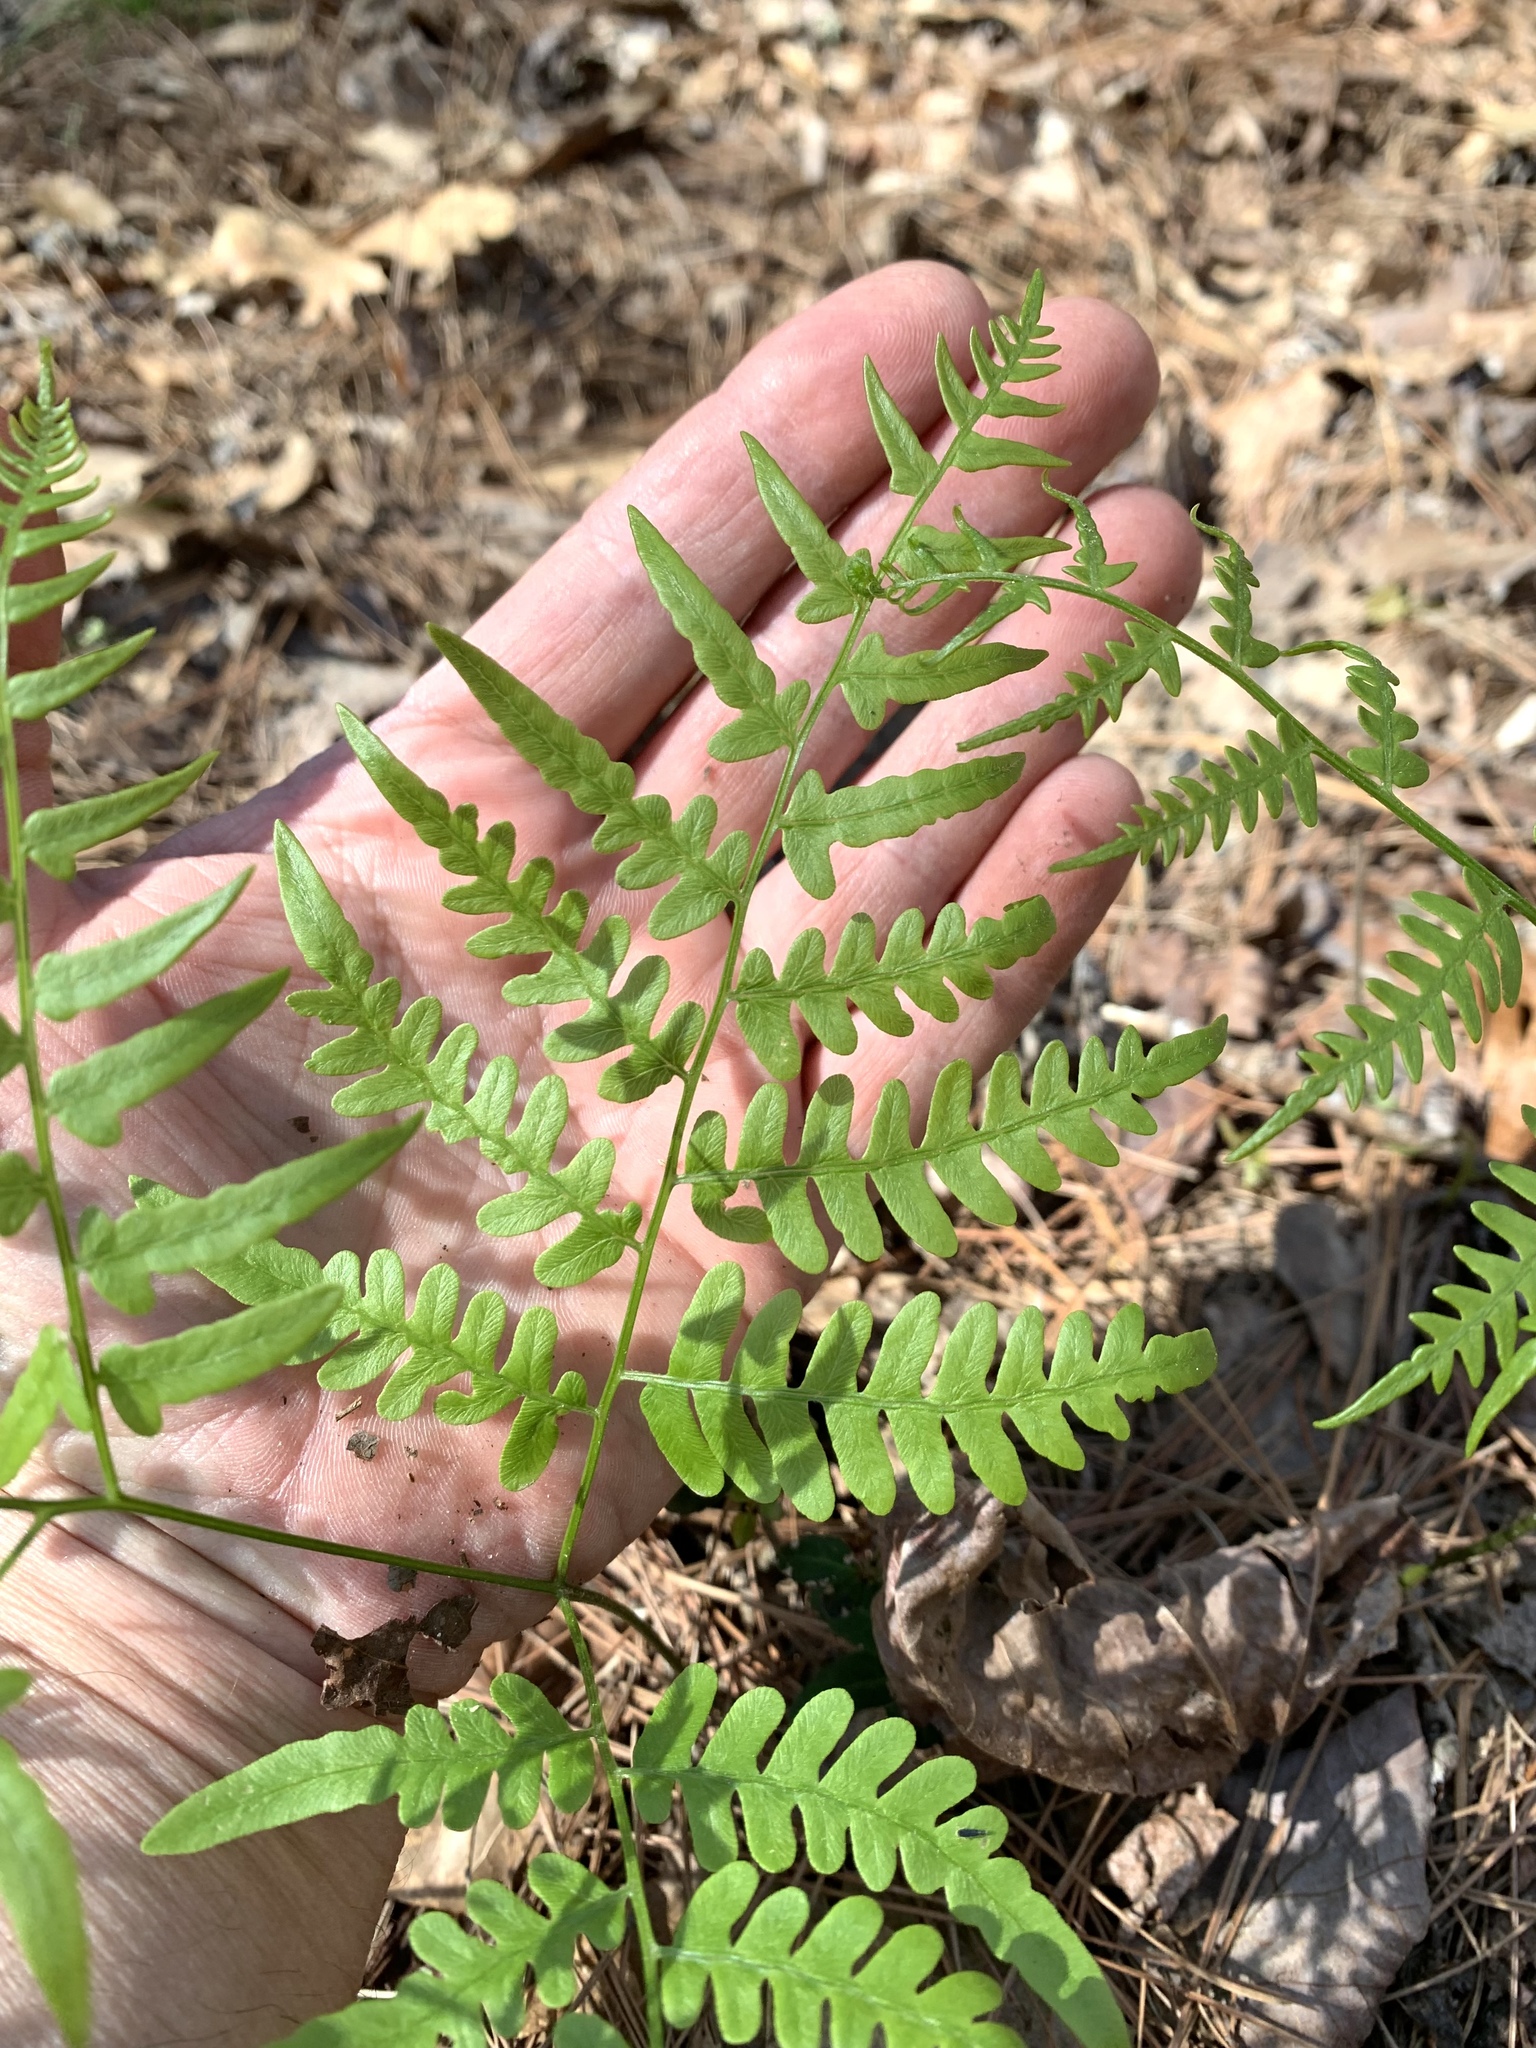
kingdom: Plantae
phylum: Tracheophyta
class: Polypodiopsida
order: Polypodiales
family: Dennstaedtiaceae
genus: Pteridium
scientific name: Pteridium
